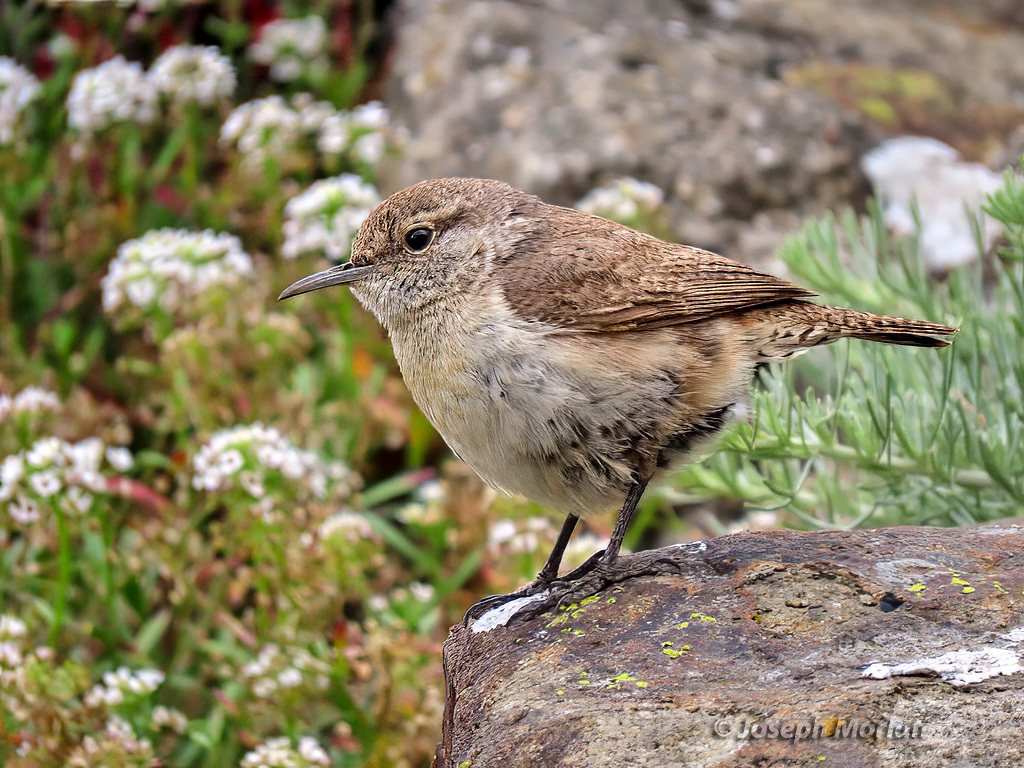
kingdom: Animalia
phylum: Chordata
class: Aves
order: Passeriformes
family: Troglodytidae
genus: Salpinctes
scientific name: Salpinctes obsoletus
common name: Rock wren
